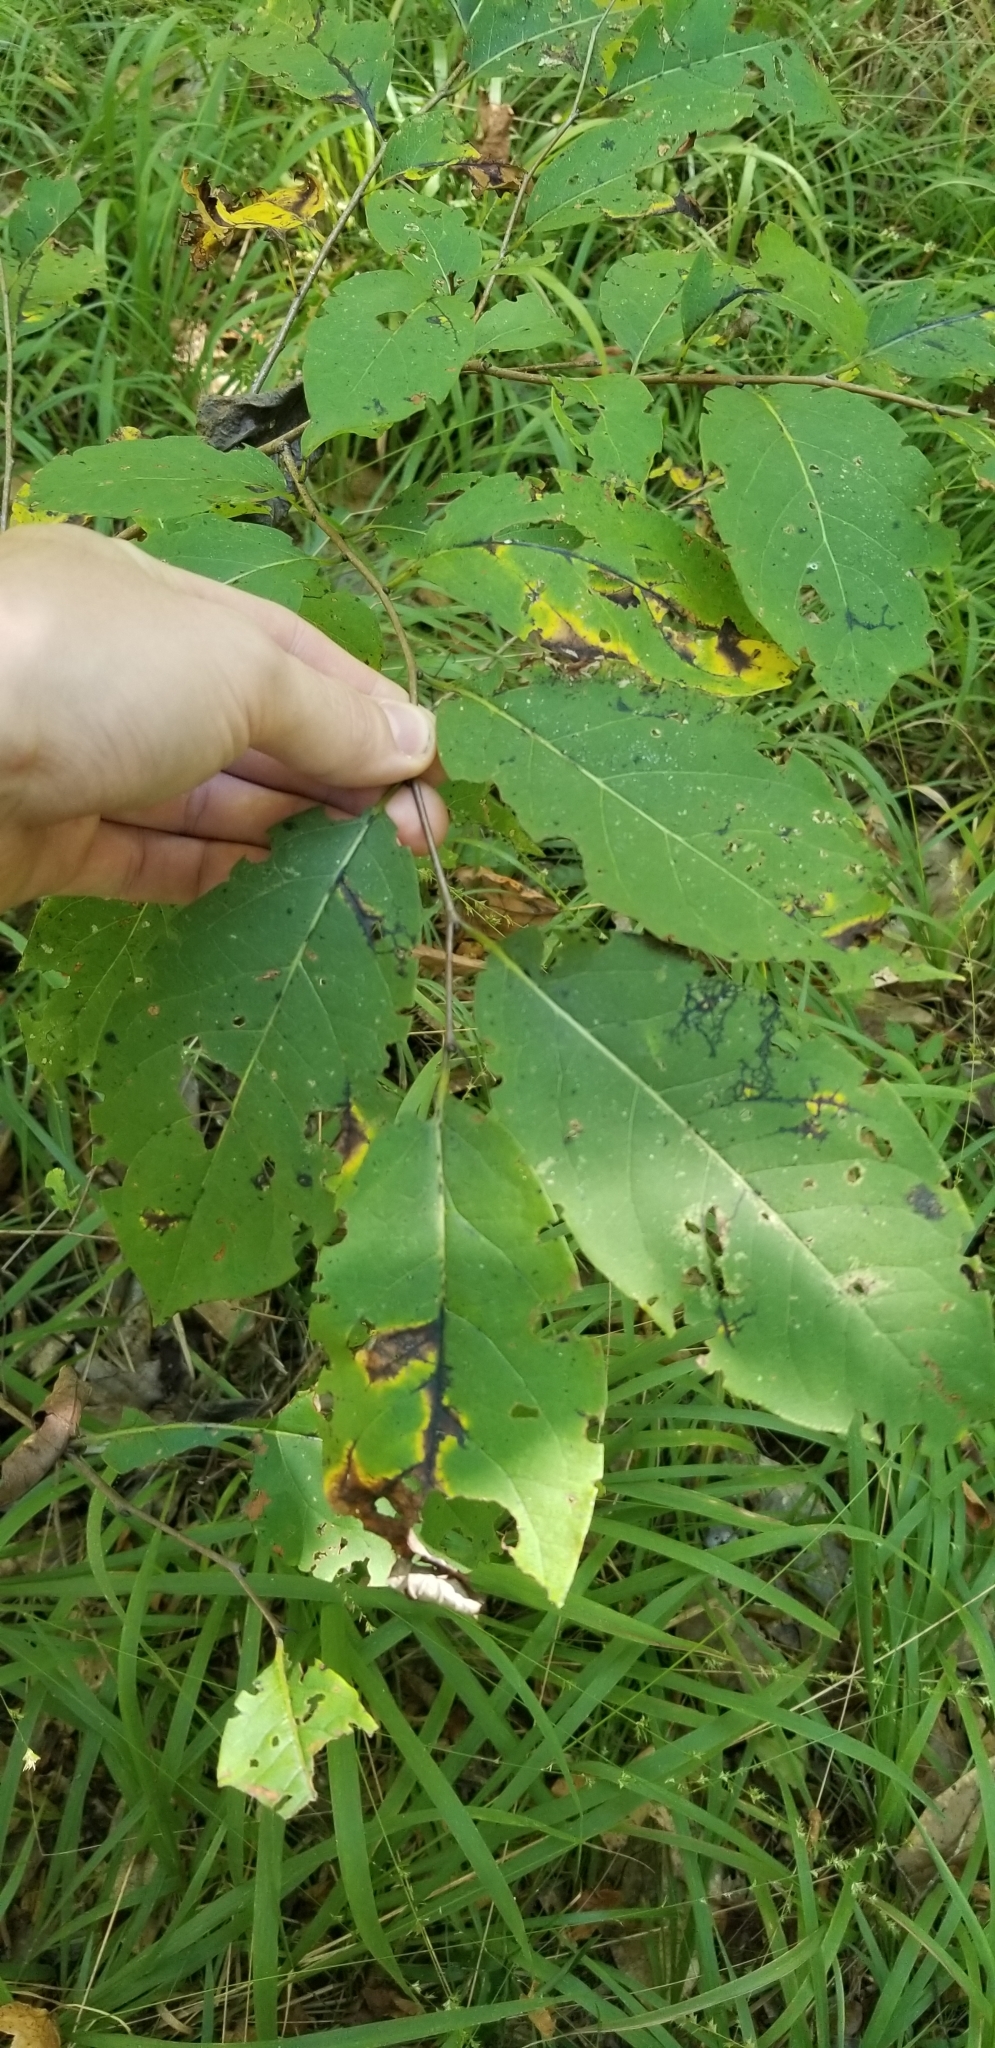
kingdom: Plantae
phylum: Tracheophyta
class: Magnoliopsida
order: Ericales
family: Ebenaceae
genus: Diospyros
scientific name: Diospyros virginiana
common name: Persimmon
